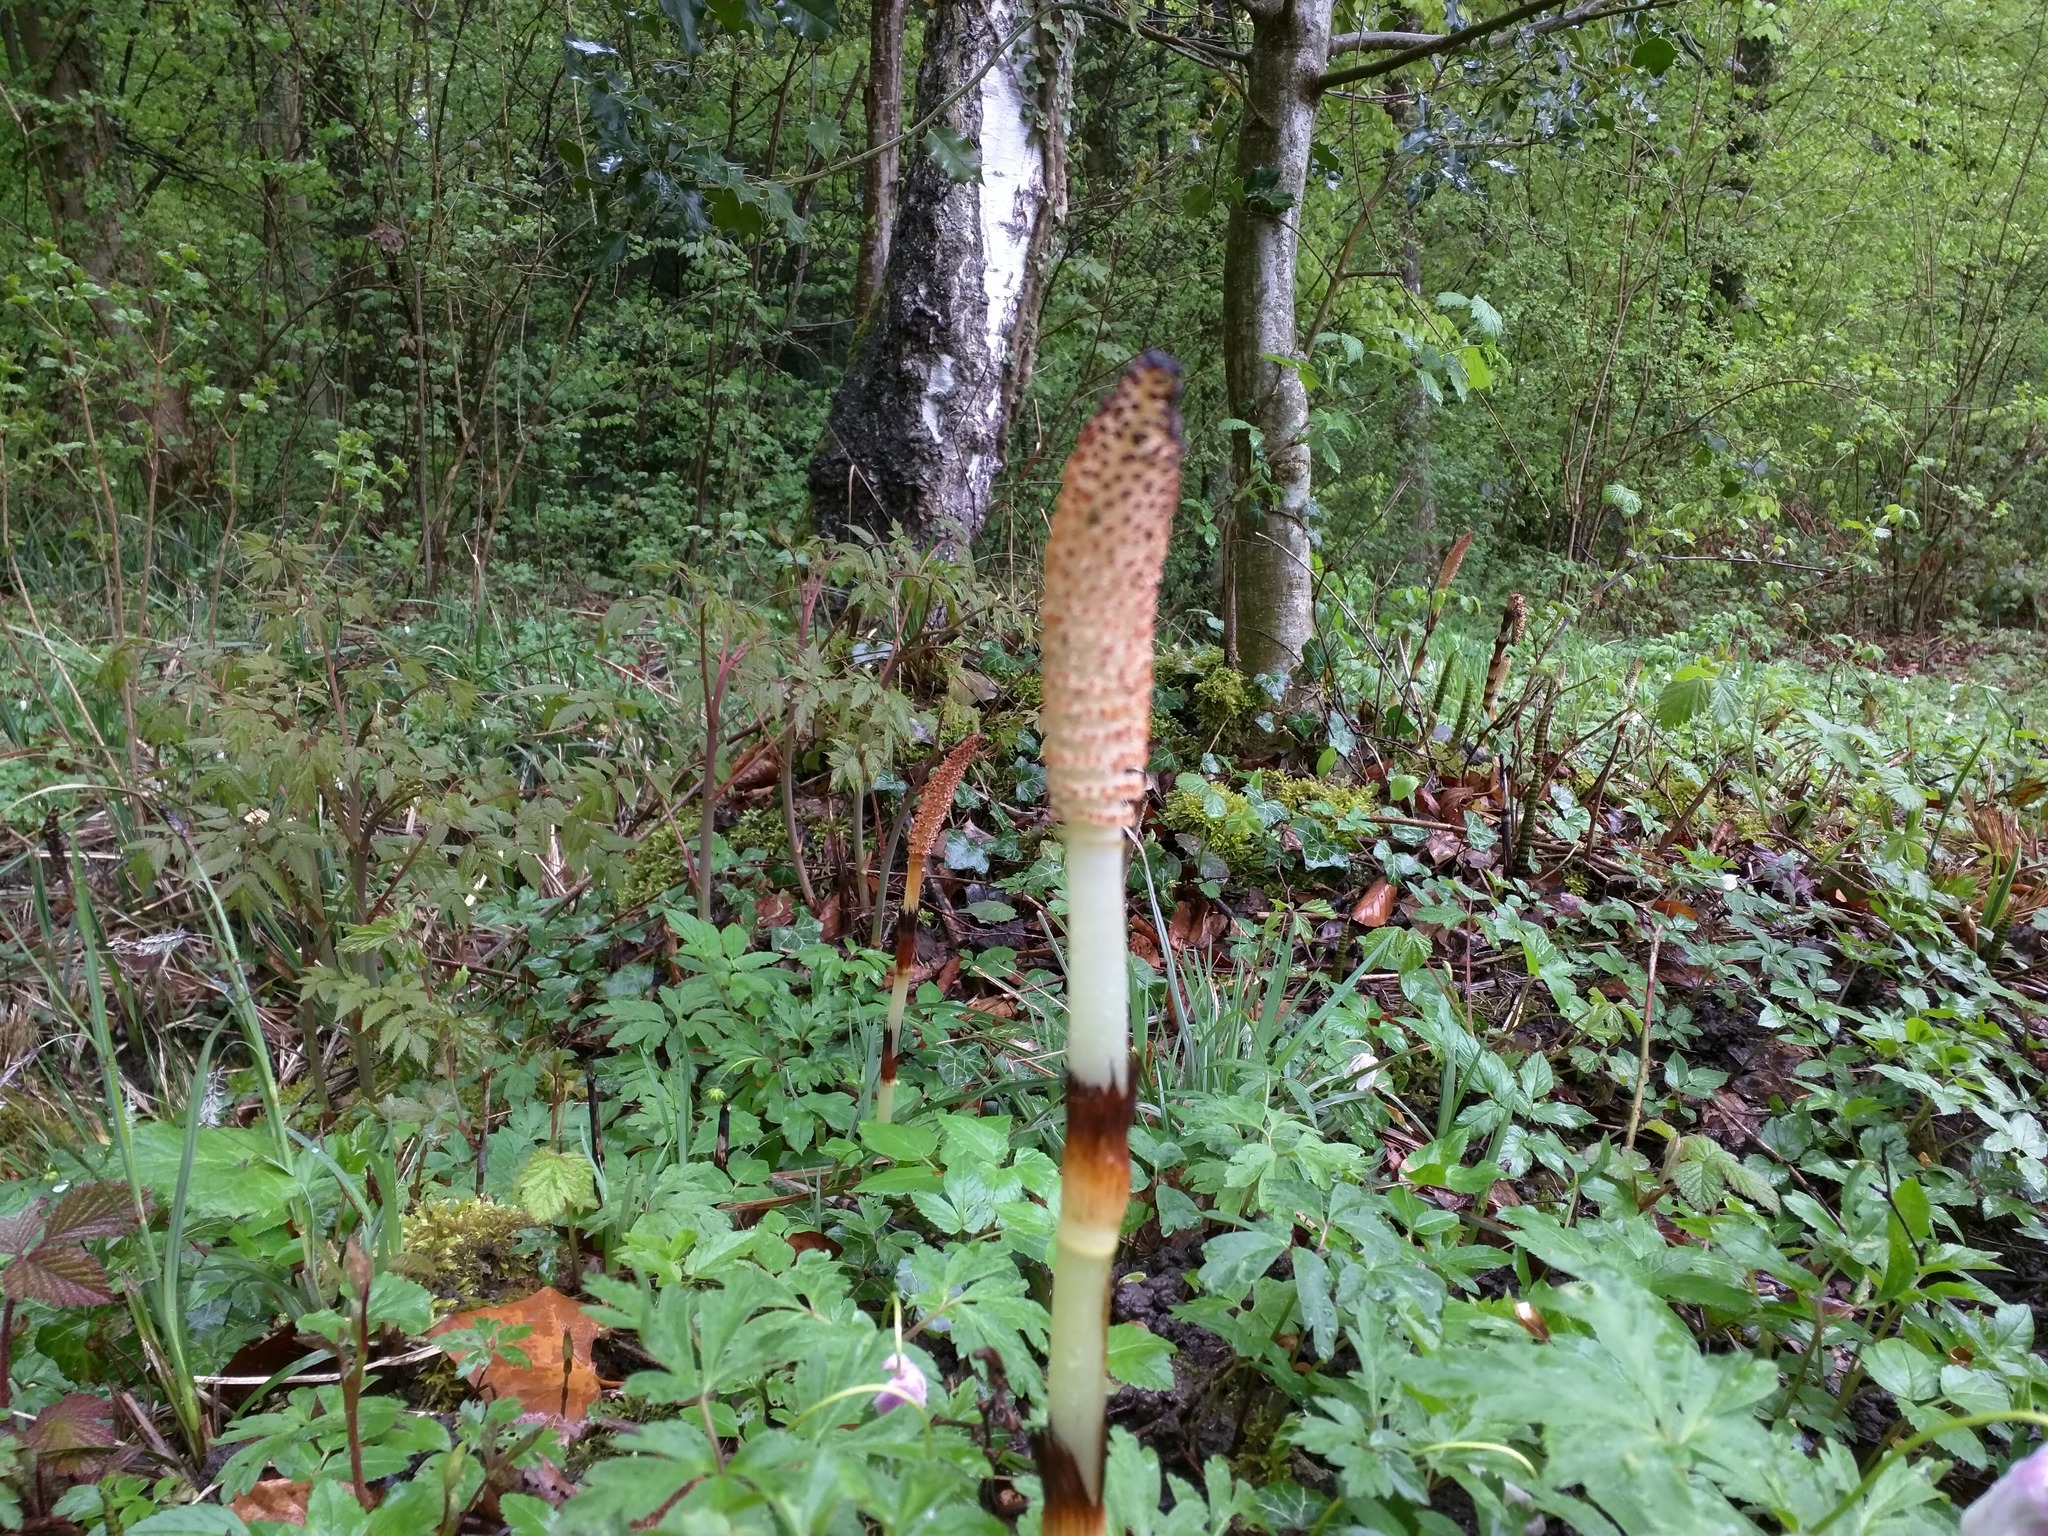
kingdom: Plantae
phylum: Tracheophyta
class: Polypodiopsida
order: Equisetales
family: Equisetaceae
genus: Equisetum
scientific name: Equisetum telmateia
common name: Great horsetail
